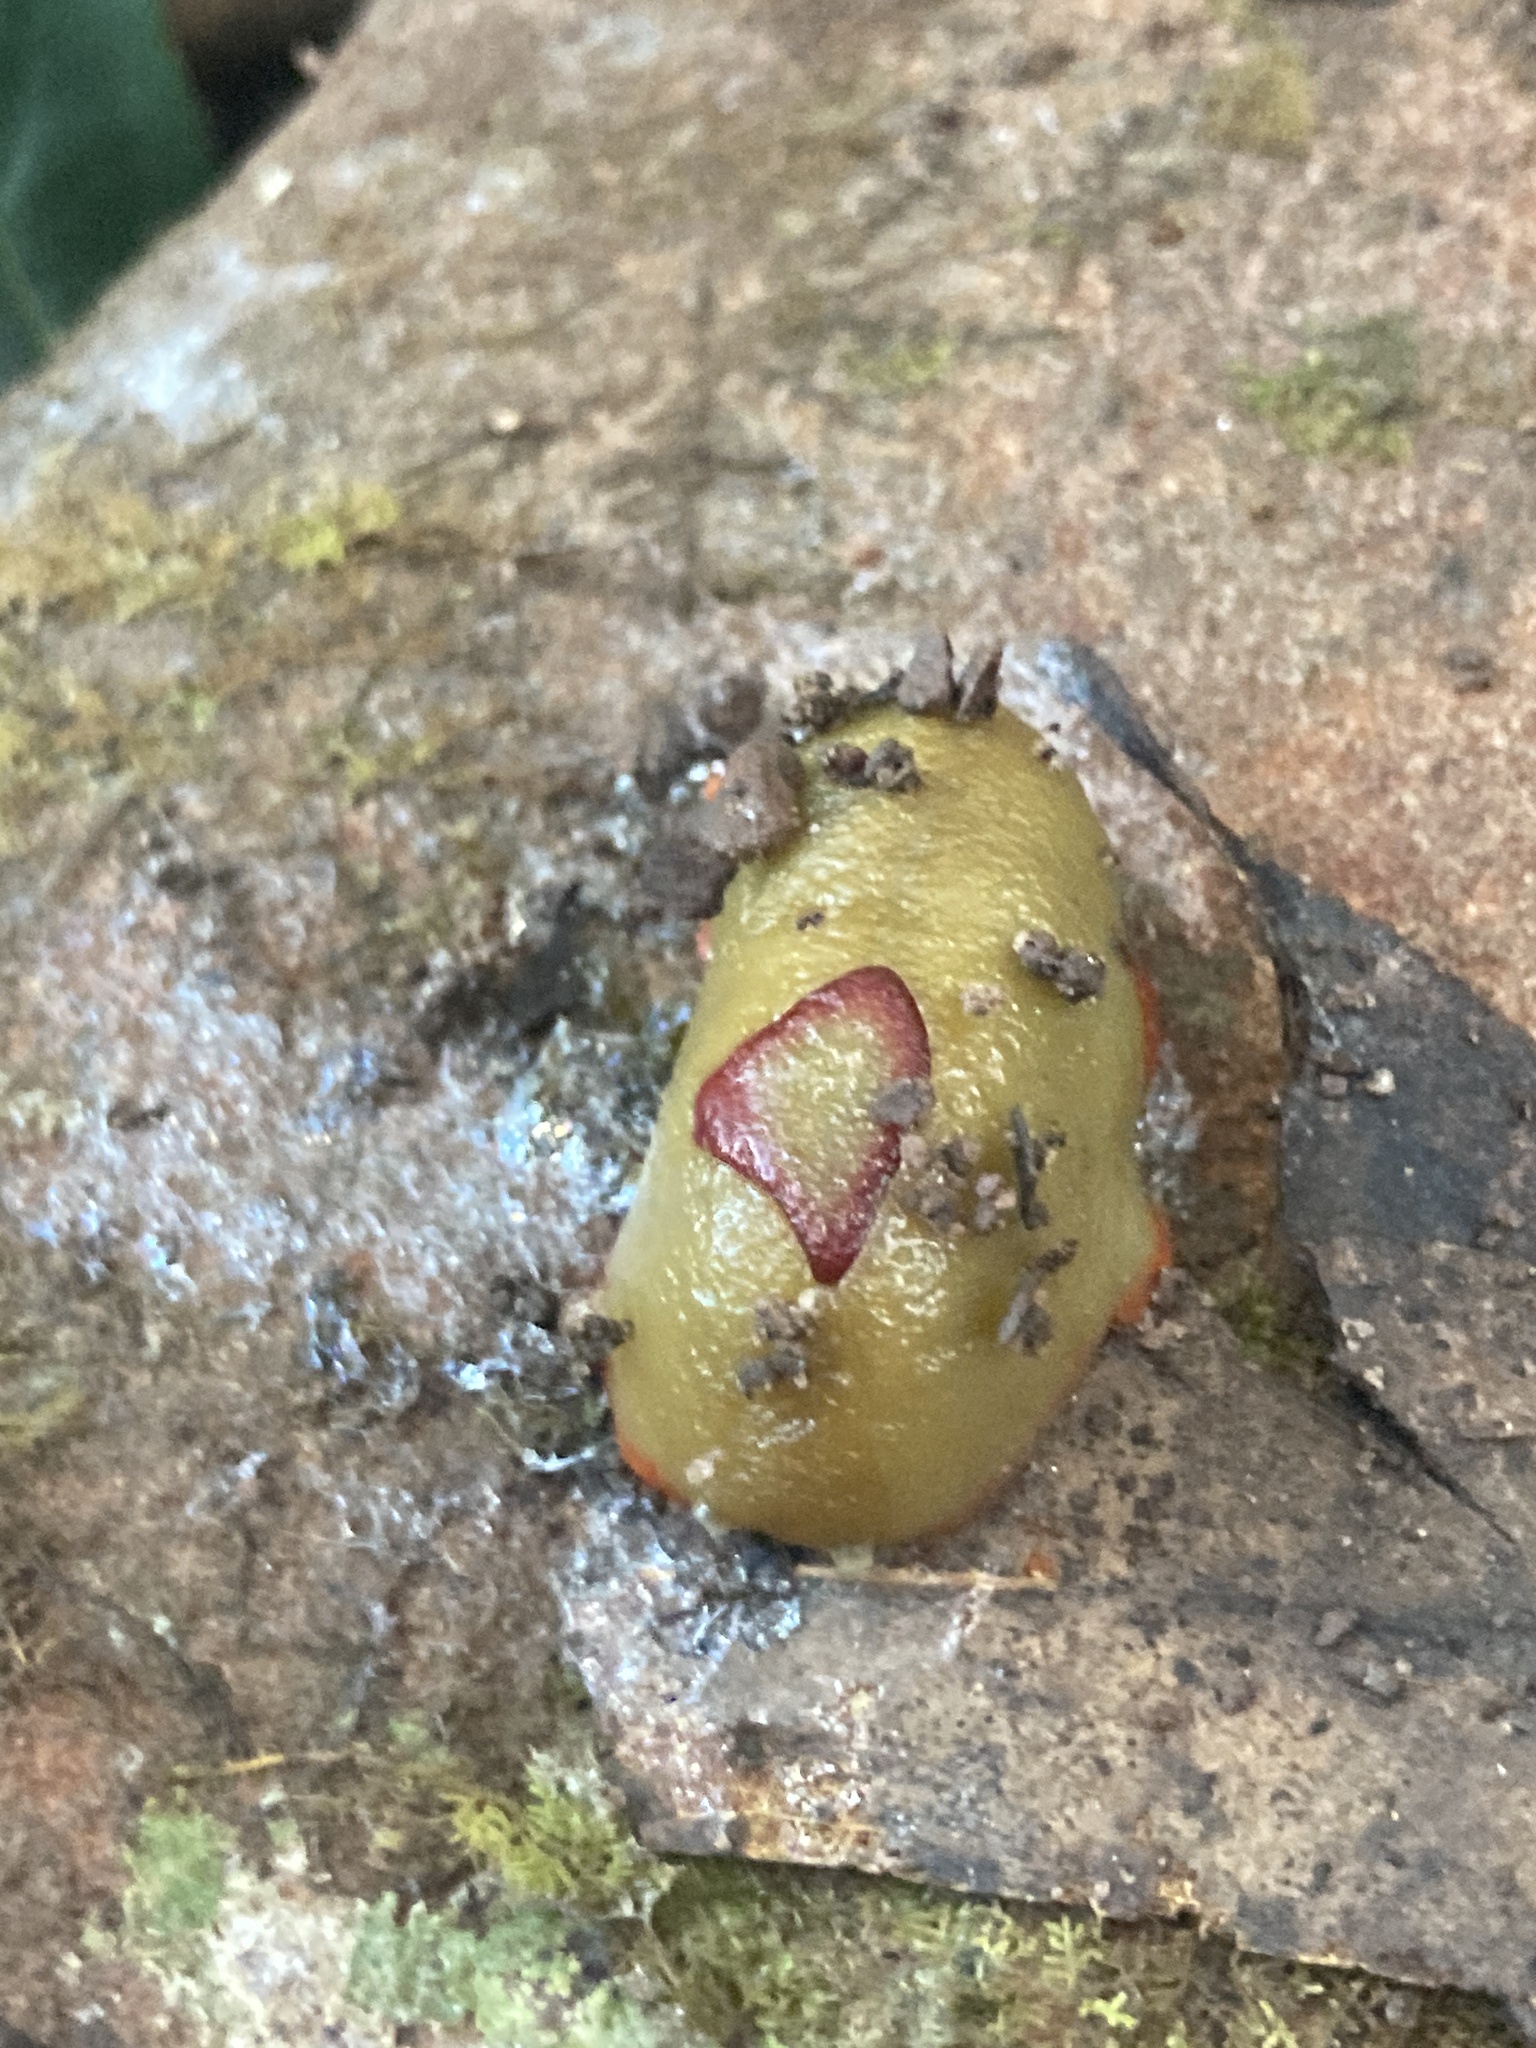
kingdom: Animalia
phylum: Mollusca
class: Gastropoda
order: Stylommatophora
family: Athoracophoridae
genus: Triboniophorus
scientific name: Triboniophorus graeffei
